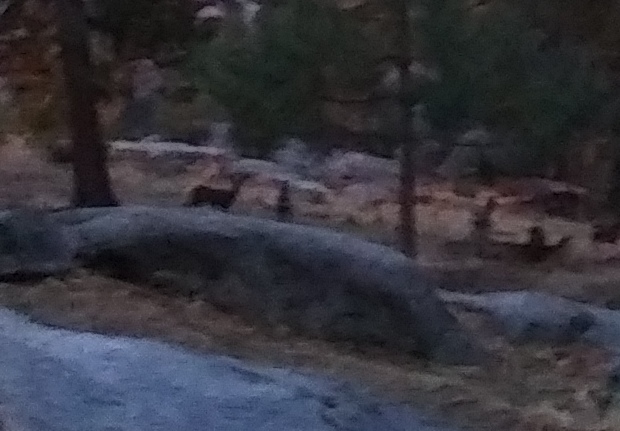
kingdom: Animalia
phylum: Chordata
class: Mammalia
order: Artiodactyla
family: Cervidae
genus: Odocoileus
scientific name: Odocoileus hemionus
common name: Mule deer
